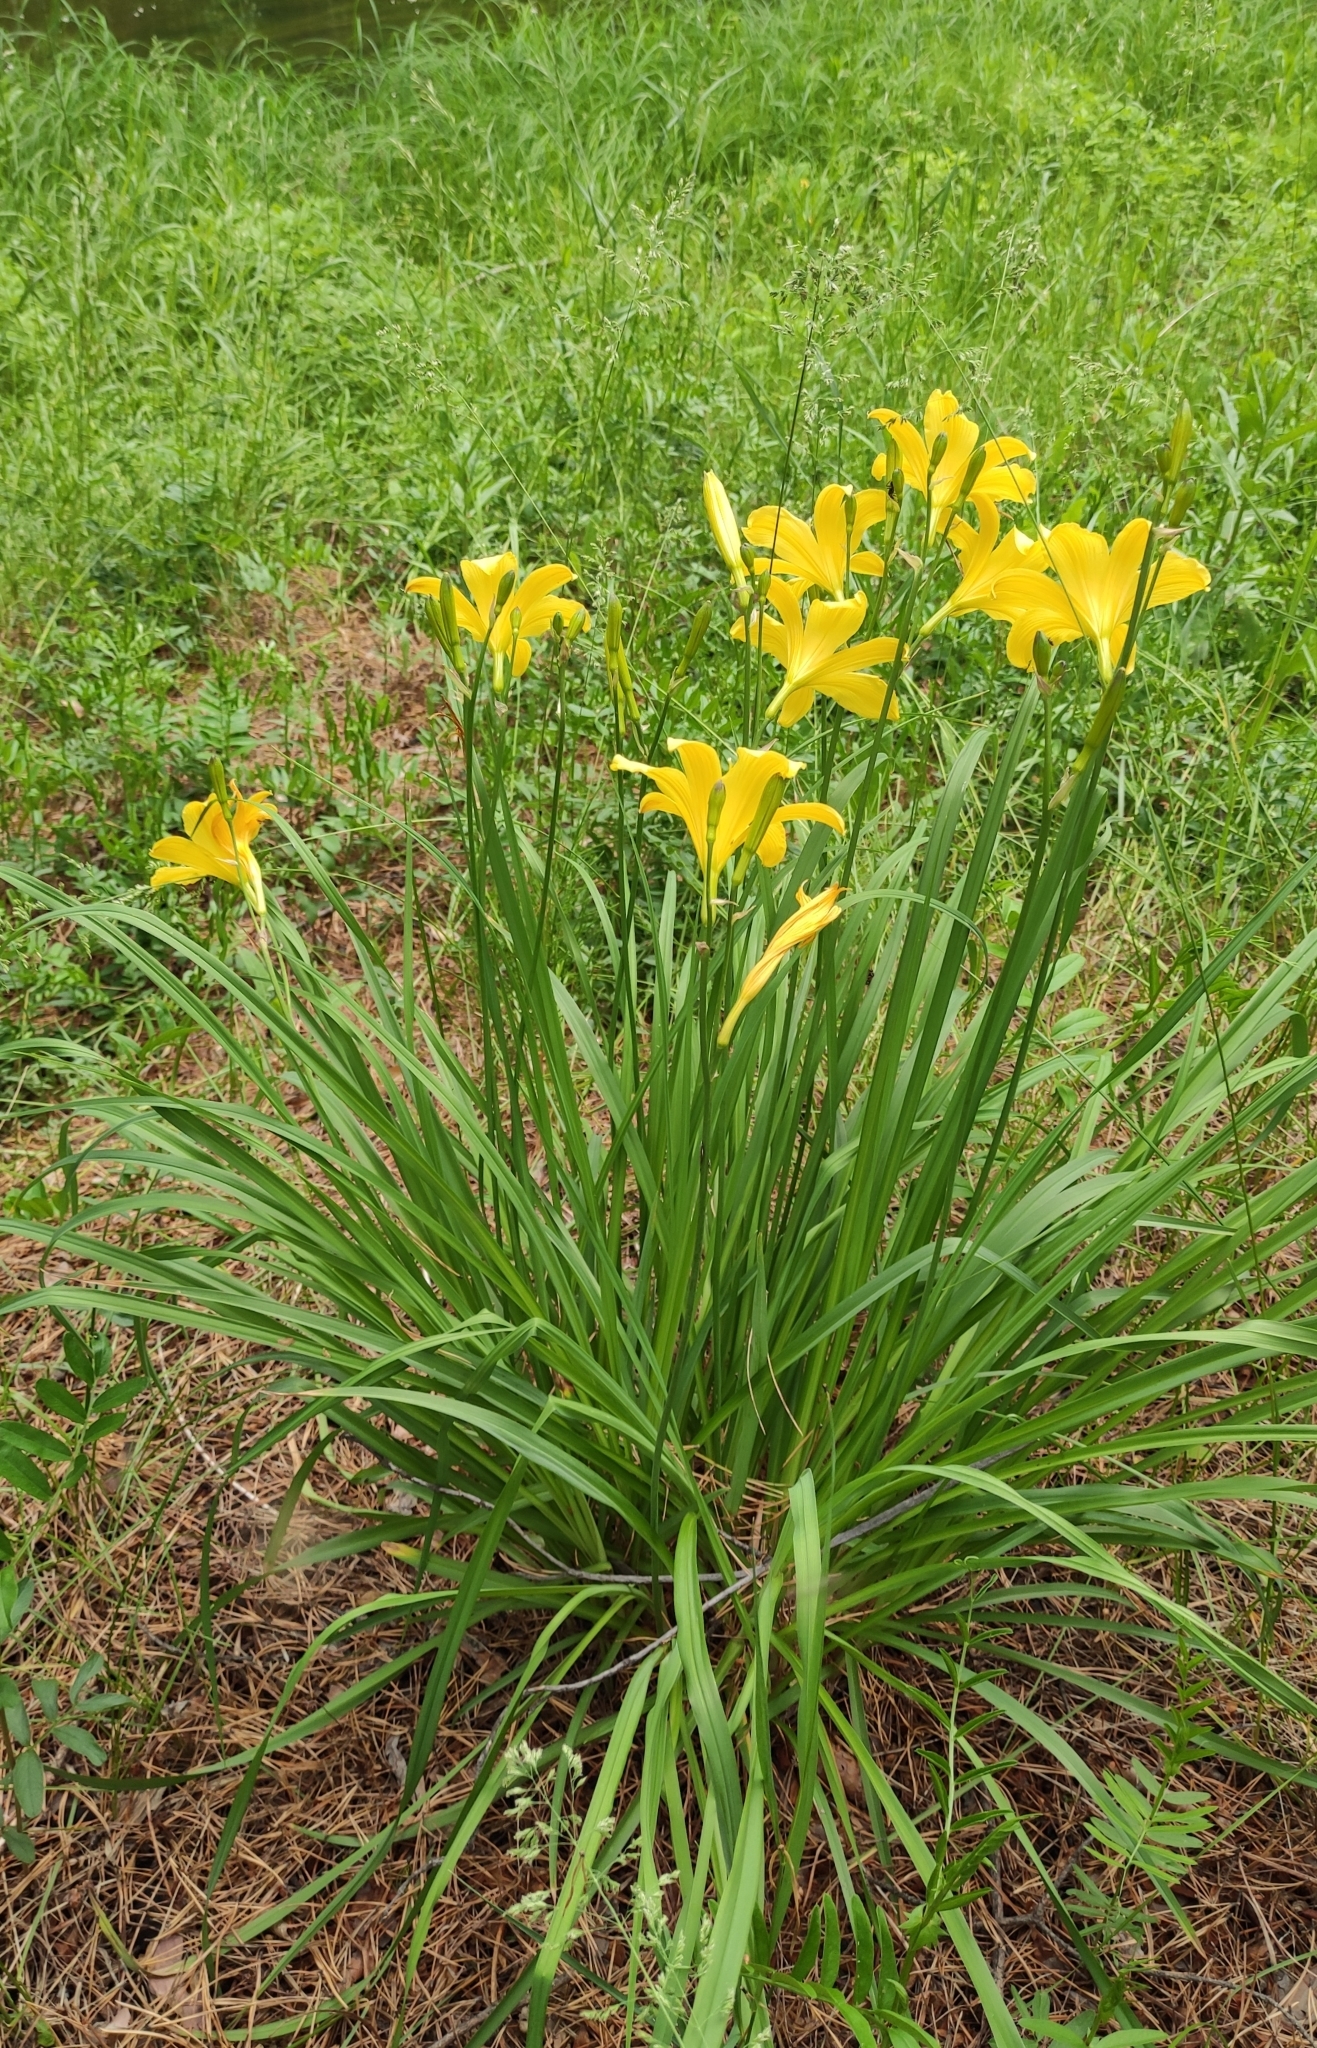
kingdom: Plantae
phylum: Tracheophyta
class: Liliopsida
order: Asparagales
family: Asphodelaceae
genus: Hemerocallis
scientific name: Hemerocallis minor
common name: Small daylily
